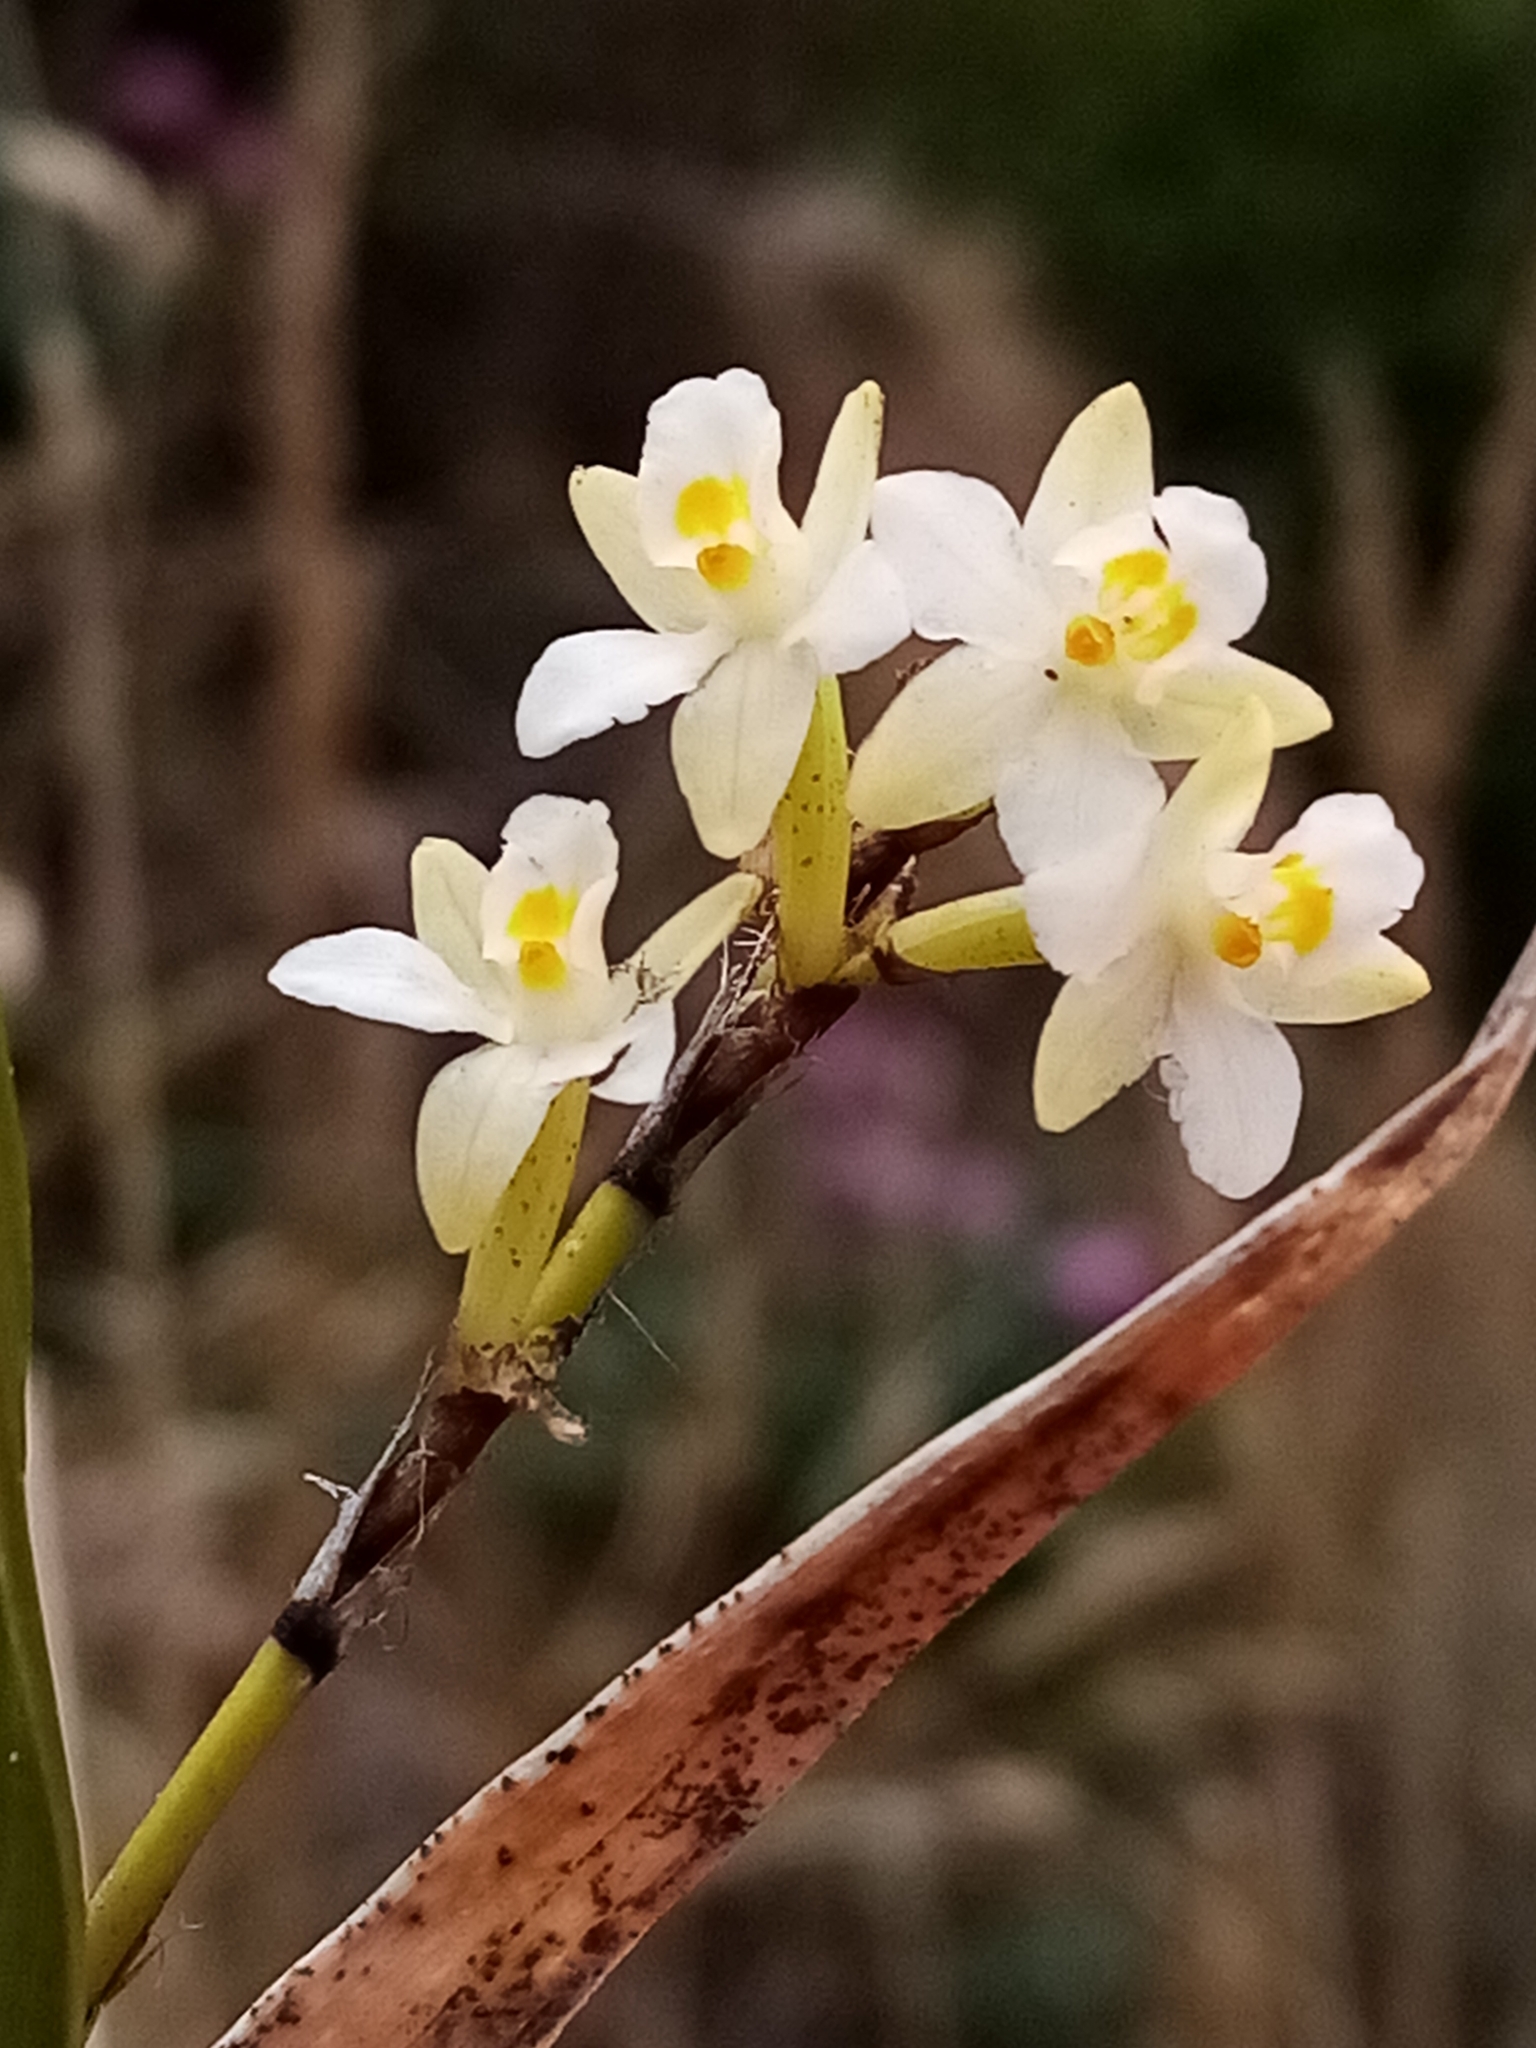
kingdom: Plantae
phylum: Tracheophyta
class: Liliopsida
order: Asparagales
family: Orchidaceae
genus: Earina
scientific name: Earina autumnalis
